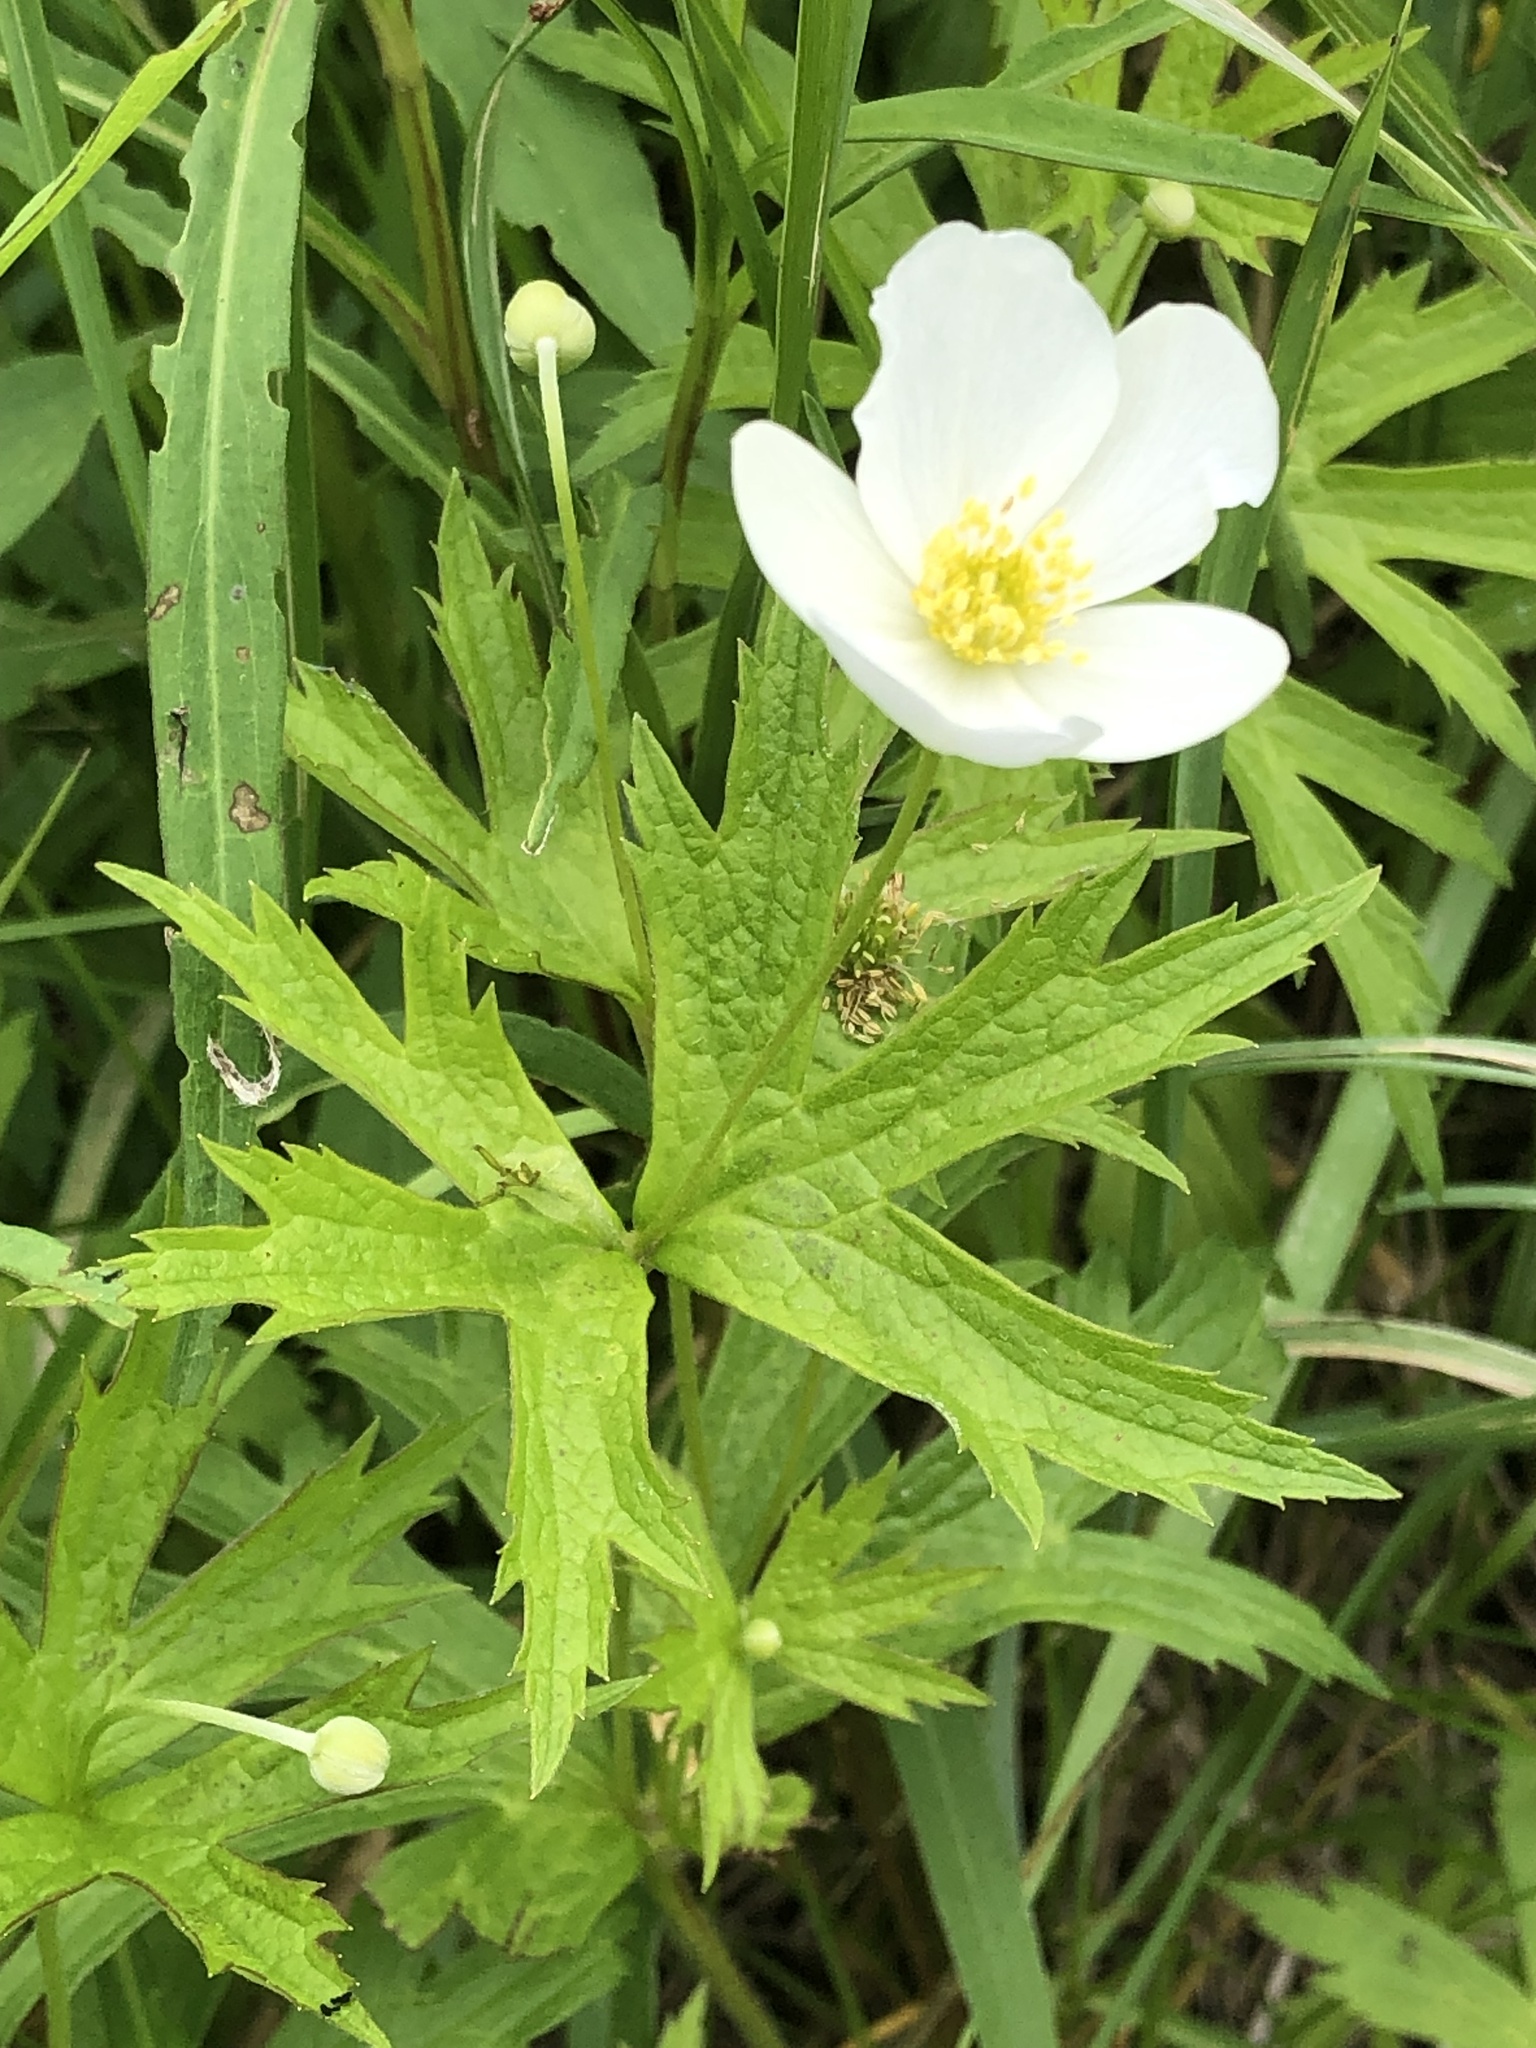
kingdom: Plantae
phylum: Tracheophyta
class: Magnoliopsida
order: Ranunculales
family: Ranunculaceae
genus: Anemonastrum
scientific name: Anemonastrum canadense
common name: Canada anemone
